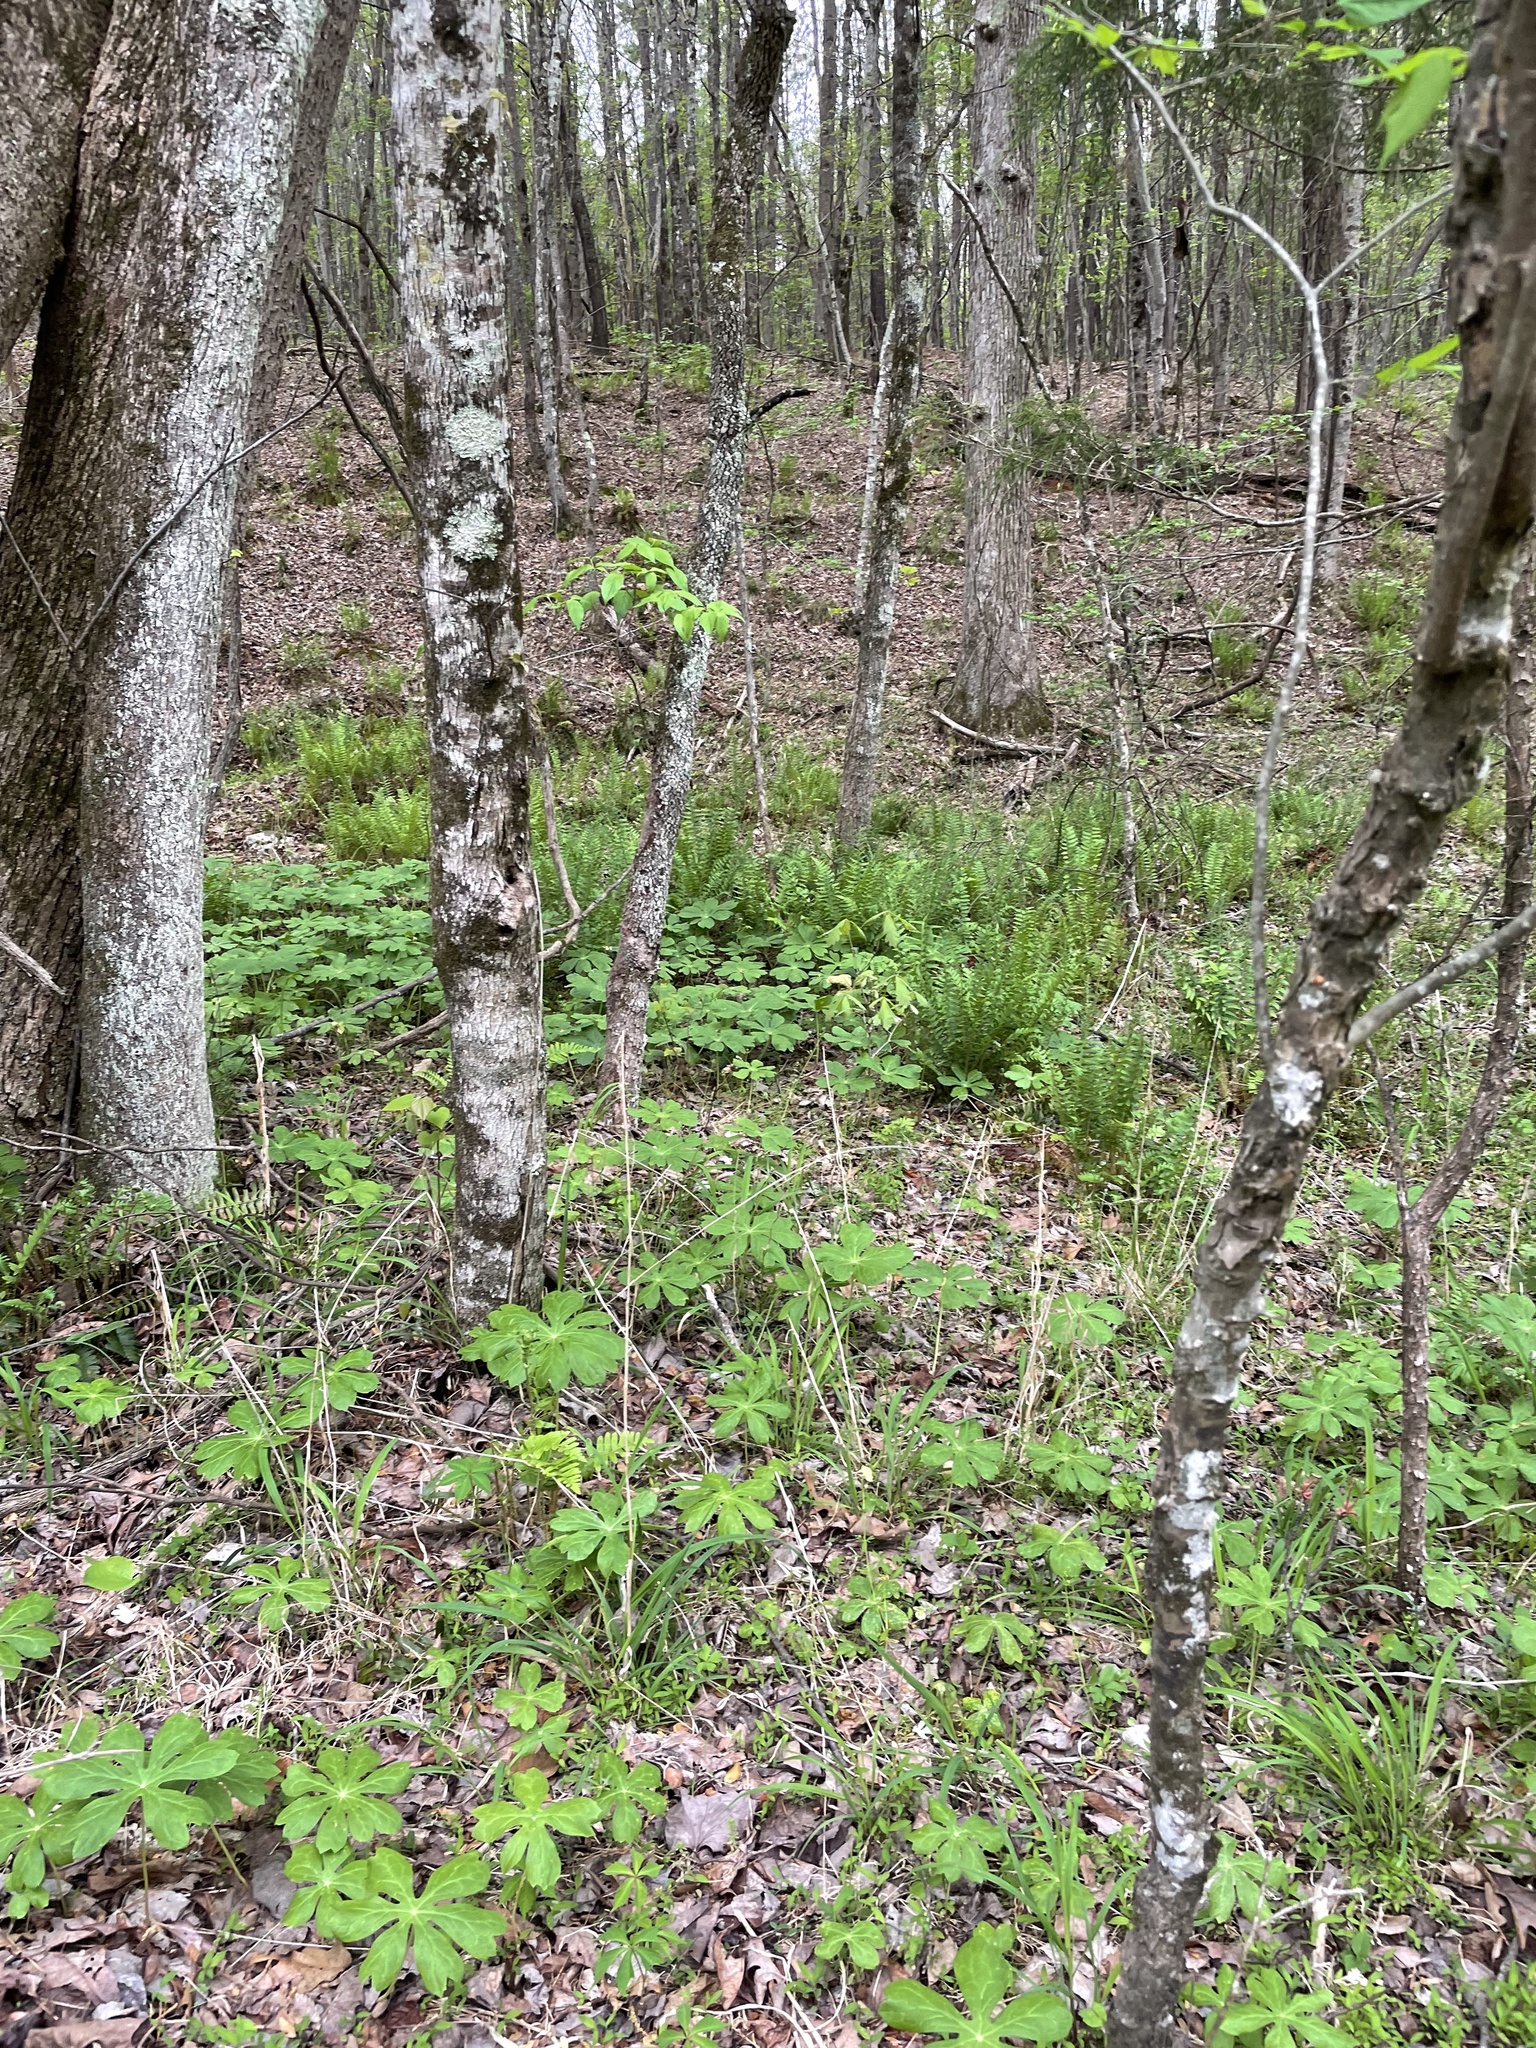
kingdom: Plantae
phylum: Tracheophyta
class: Magnoliopsida
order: Ranunculales
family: Berberidaceae
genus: Podophyllum
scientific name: Podophyllum peltatum
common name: Wild mandrake
